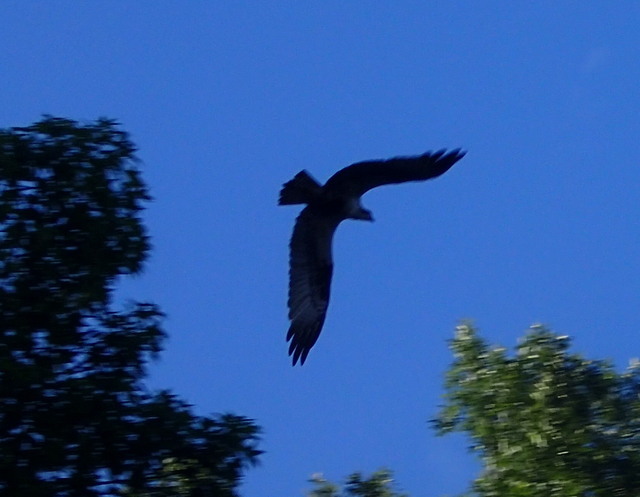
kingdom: Animalia
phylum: Chordata
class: Aves
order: Accipitriformes
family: Pandionidae
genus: Pandion
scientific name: Pandion haliaetus
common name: Osprey
